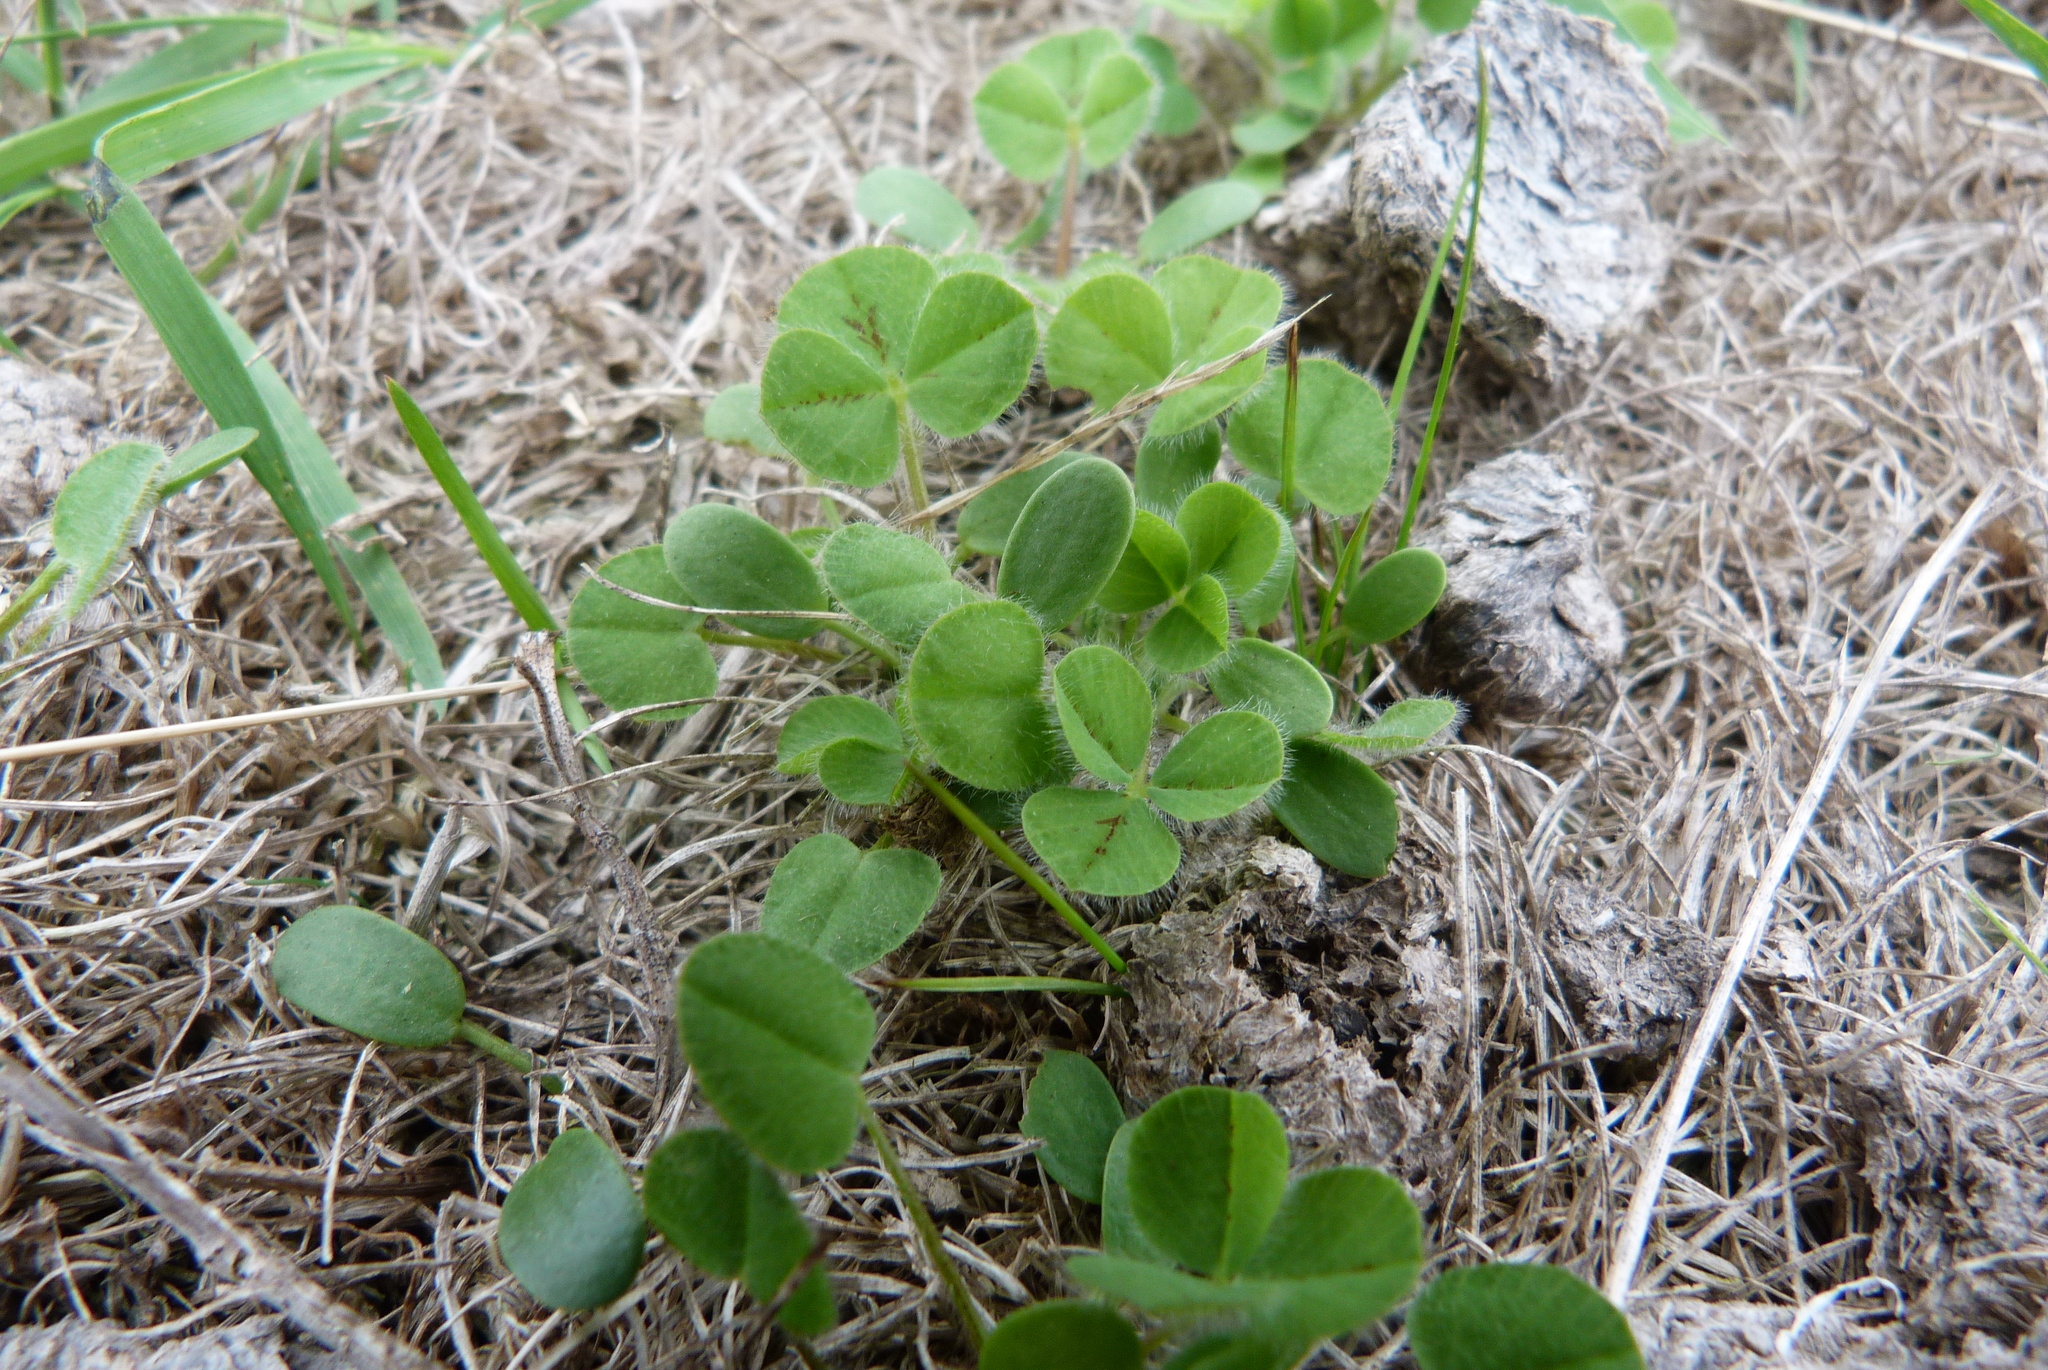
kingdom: Plantae
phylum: Tracheophyta
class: Magnoliopsida
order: Fabales
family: Fabaceae
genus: Trifolium
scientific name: Trifolium subterraneum
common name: Subterranean clover
